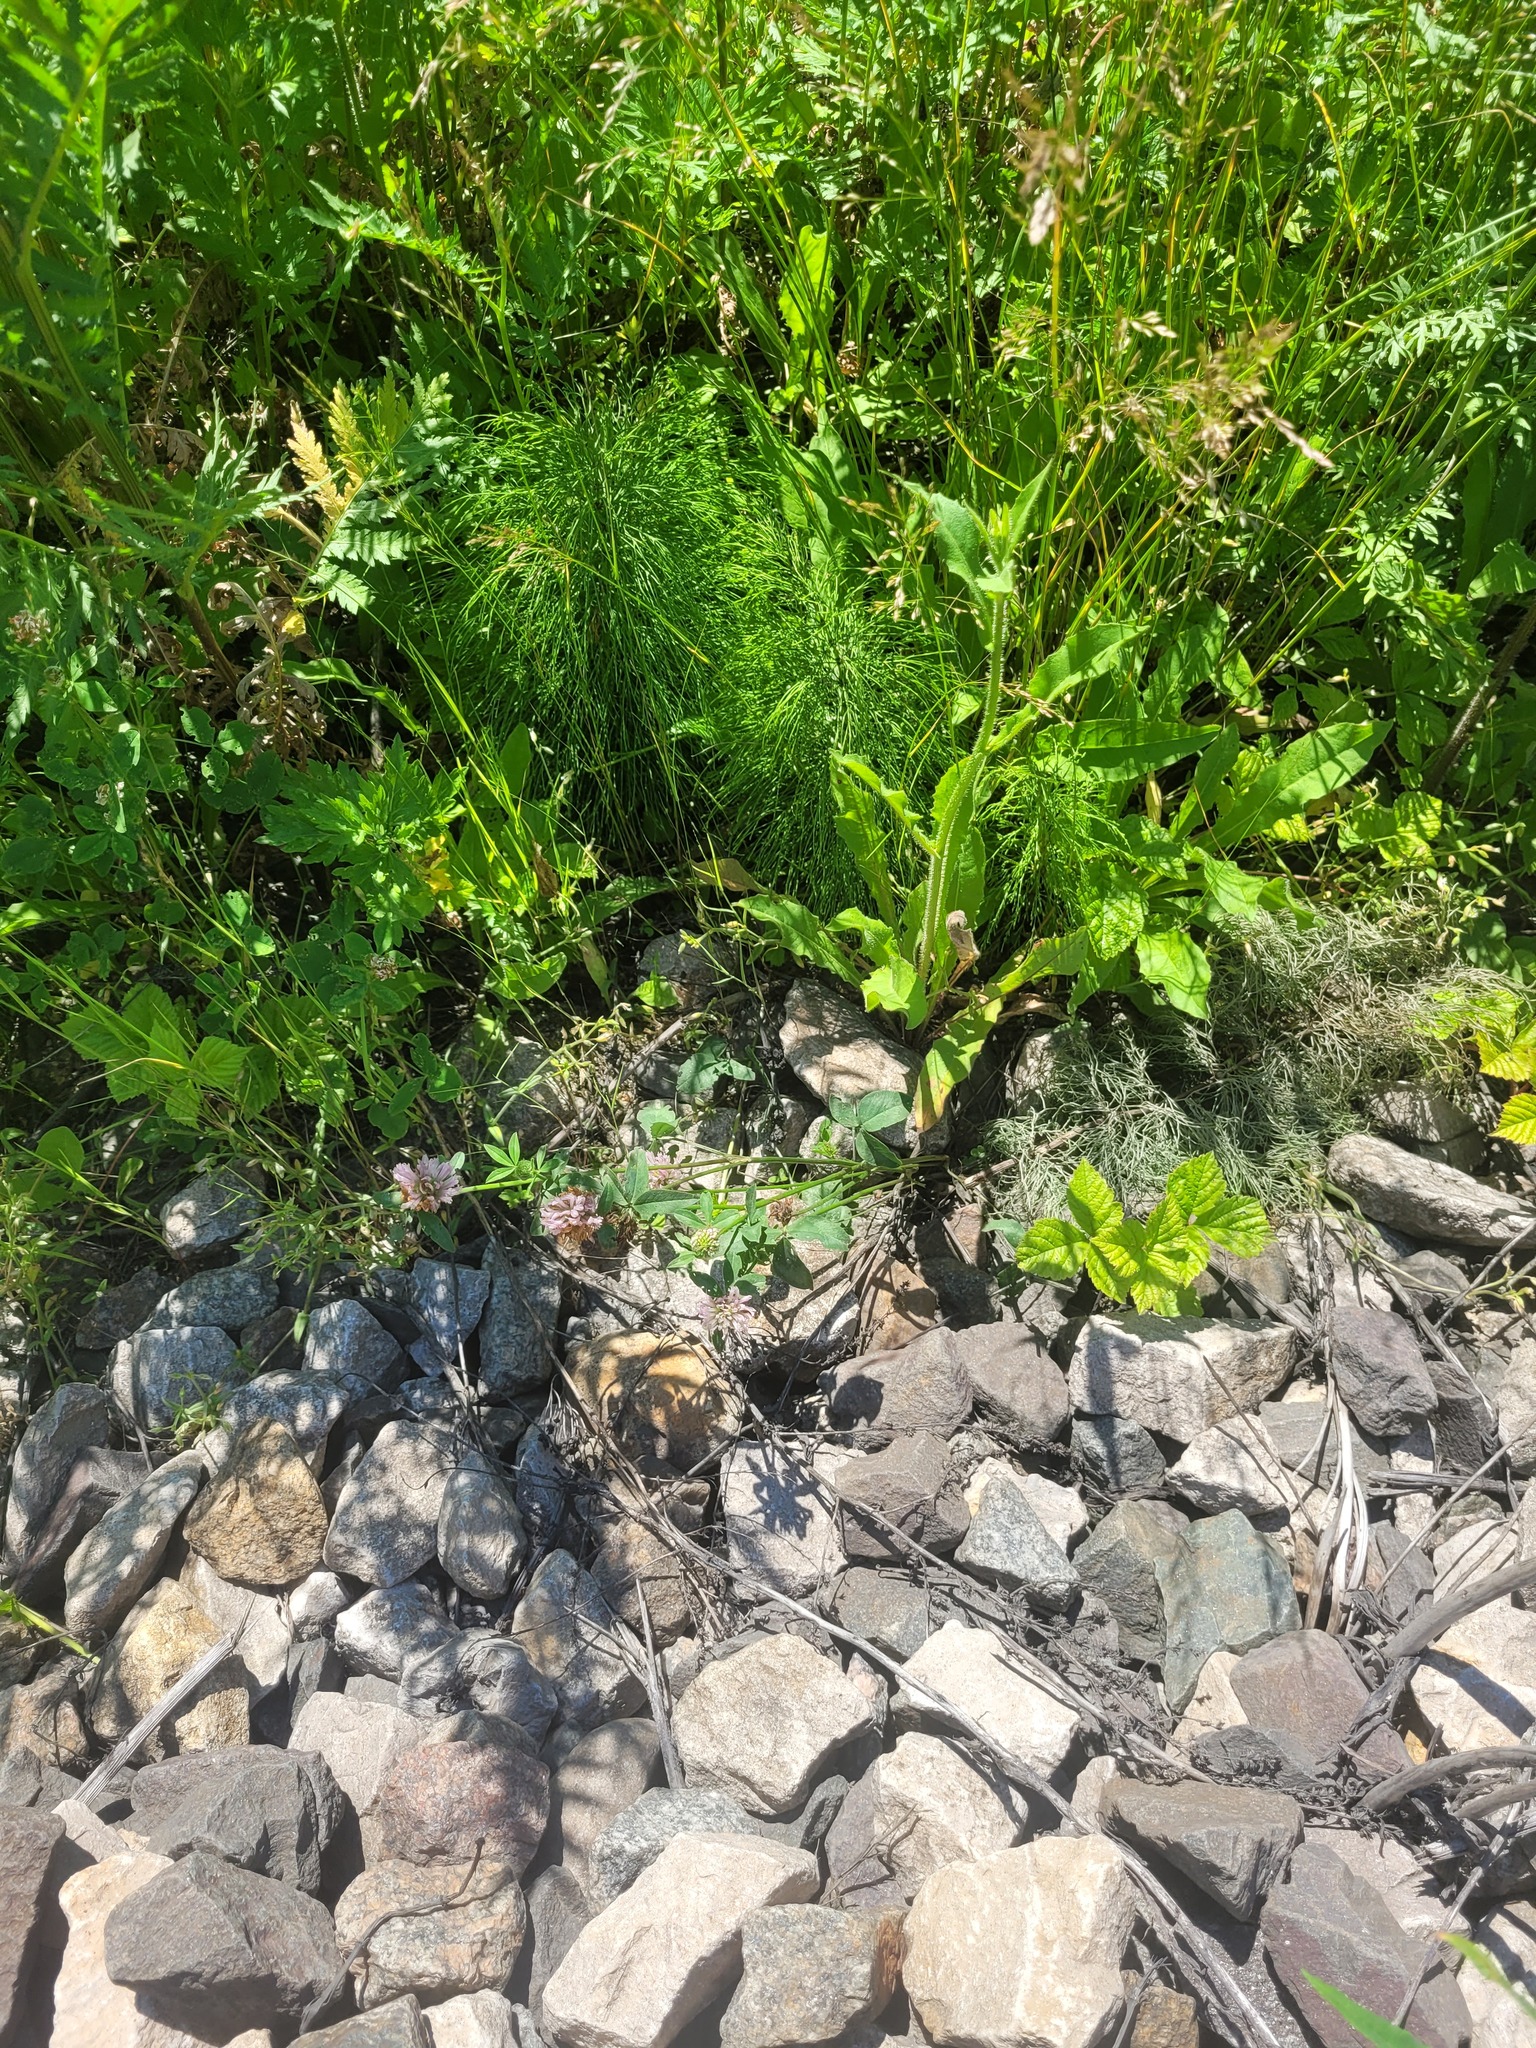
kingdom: Plantae
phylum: Tracheophyta
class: Magnoliopsida
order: Fabales
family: Fabaceae
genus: Trifolium
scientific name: Trifolium pratense
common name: Red clover
